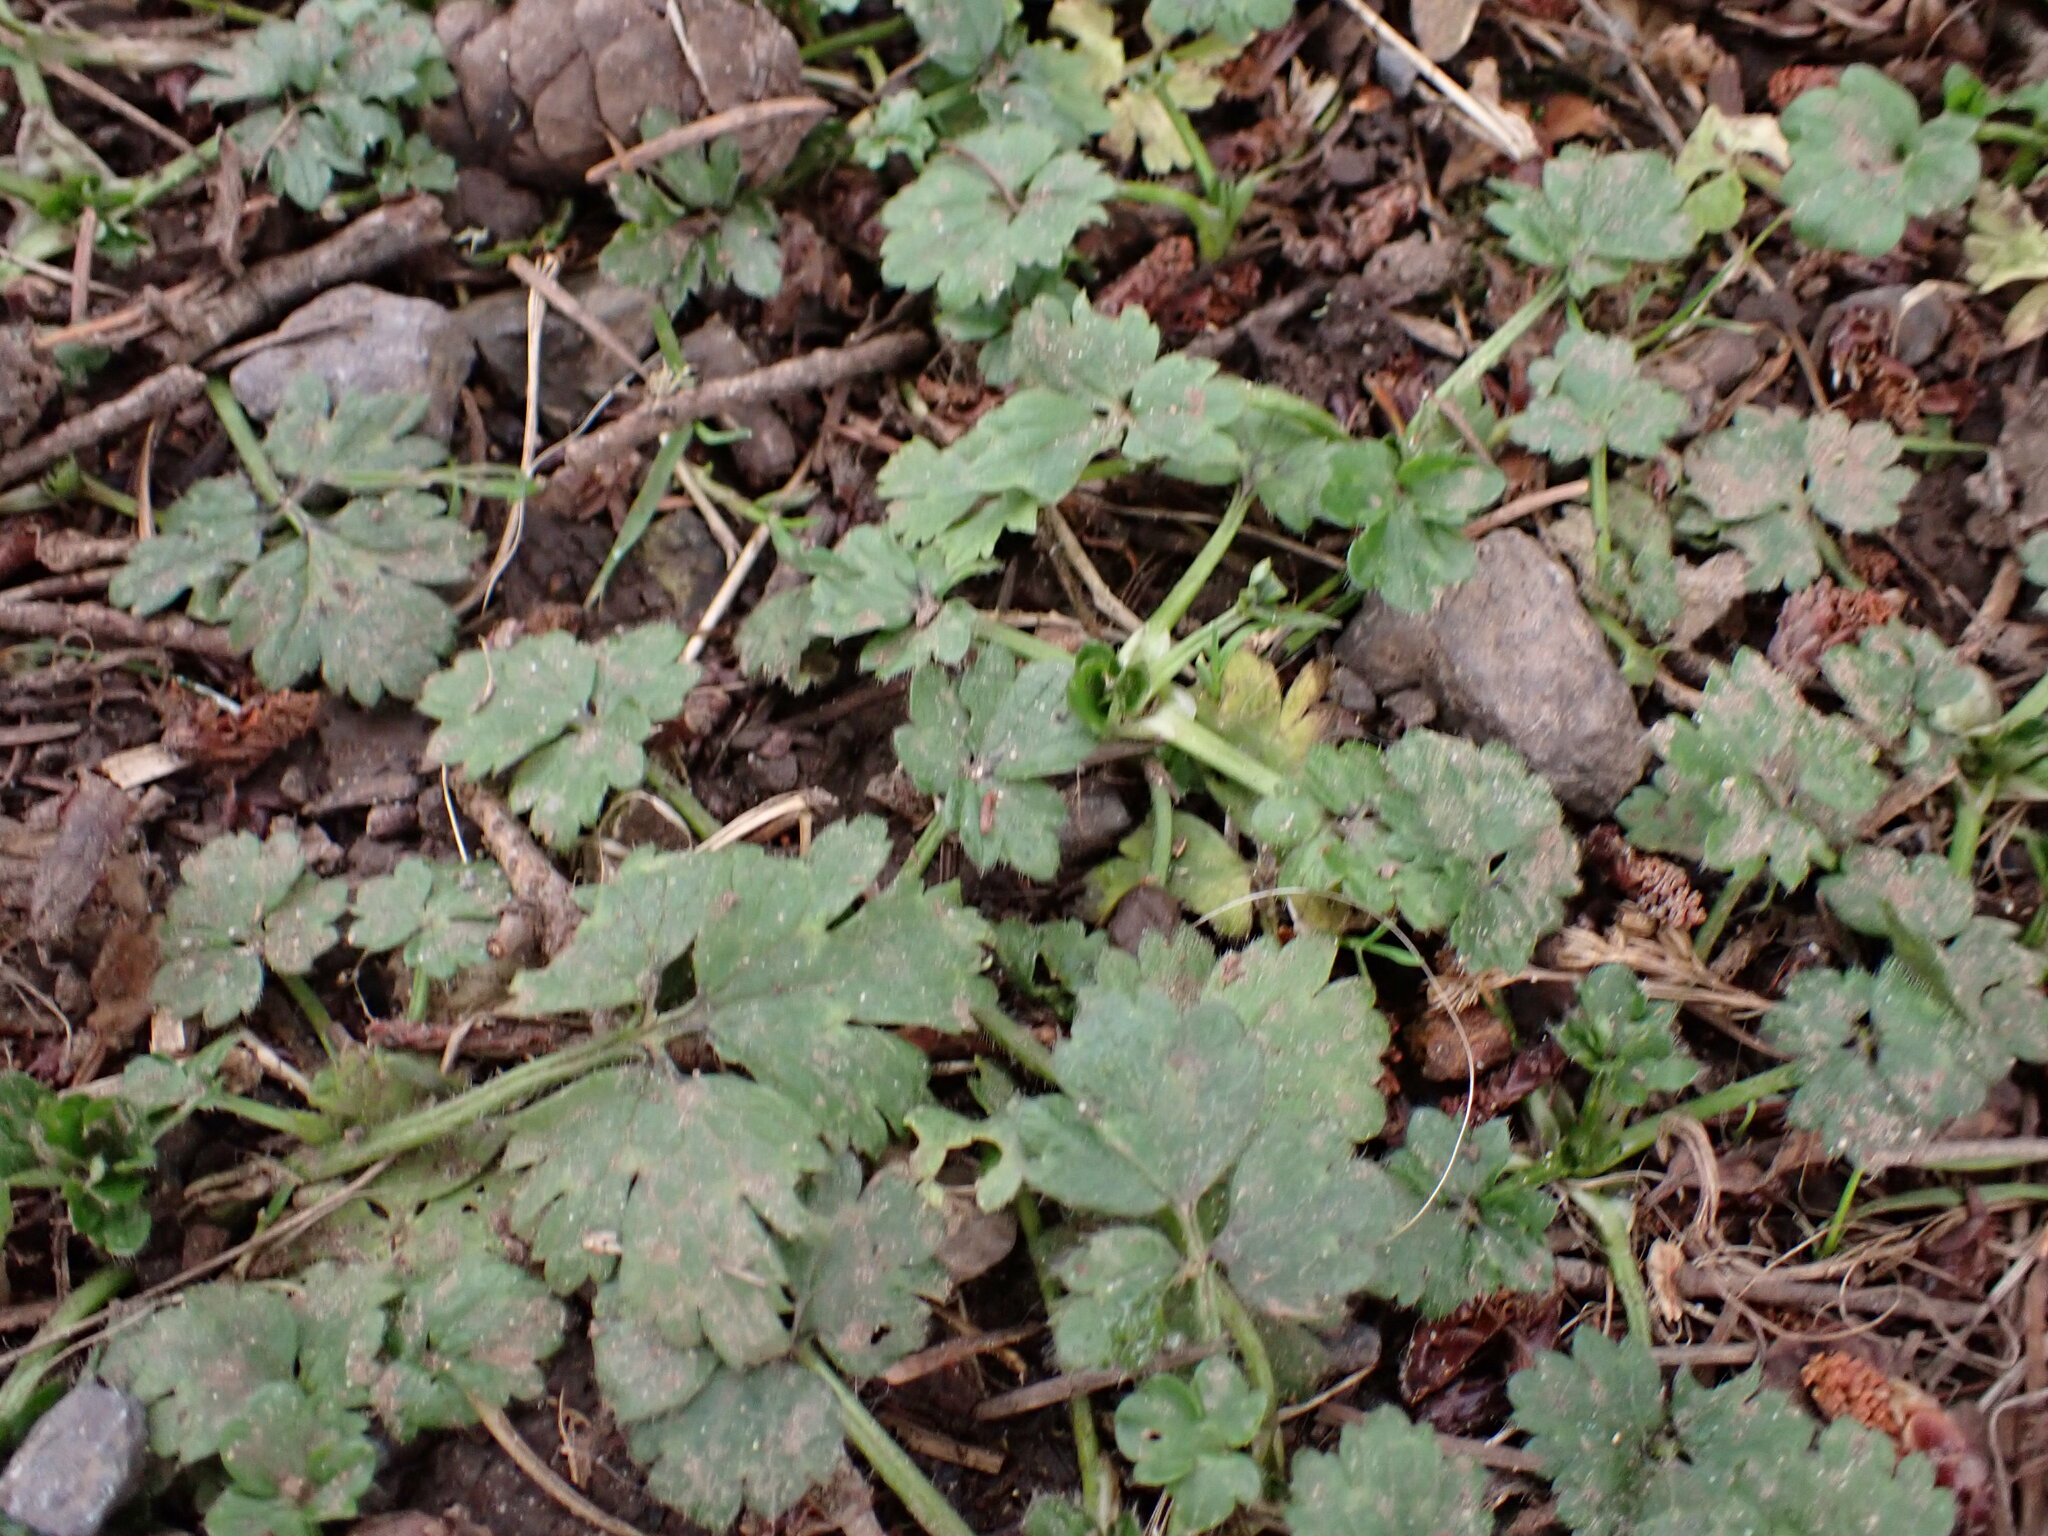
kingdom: Plantae
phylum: Tracheophyta
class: Magnoliopsida
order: Ranunculales
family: Ranunculaceae
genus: Ranunculus
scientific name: Ranunculus repens
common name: Creeping buttercup
